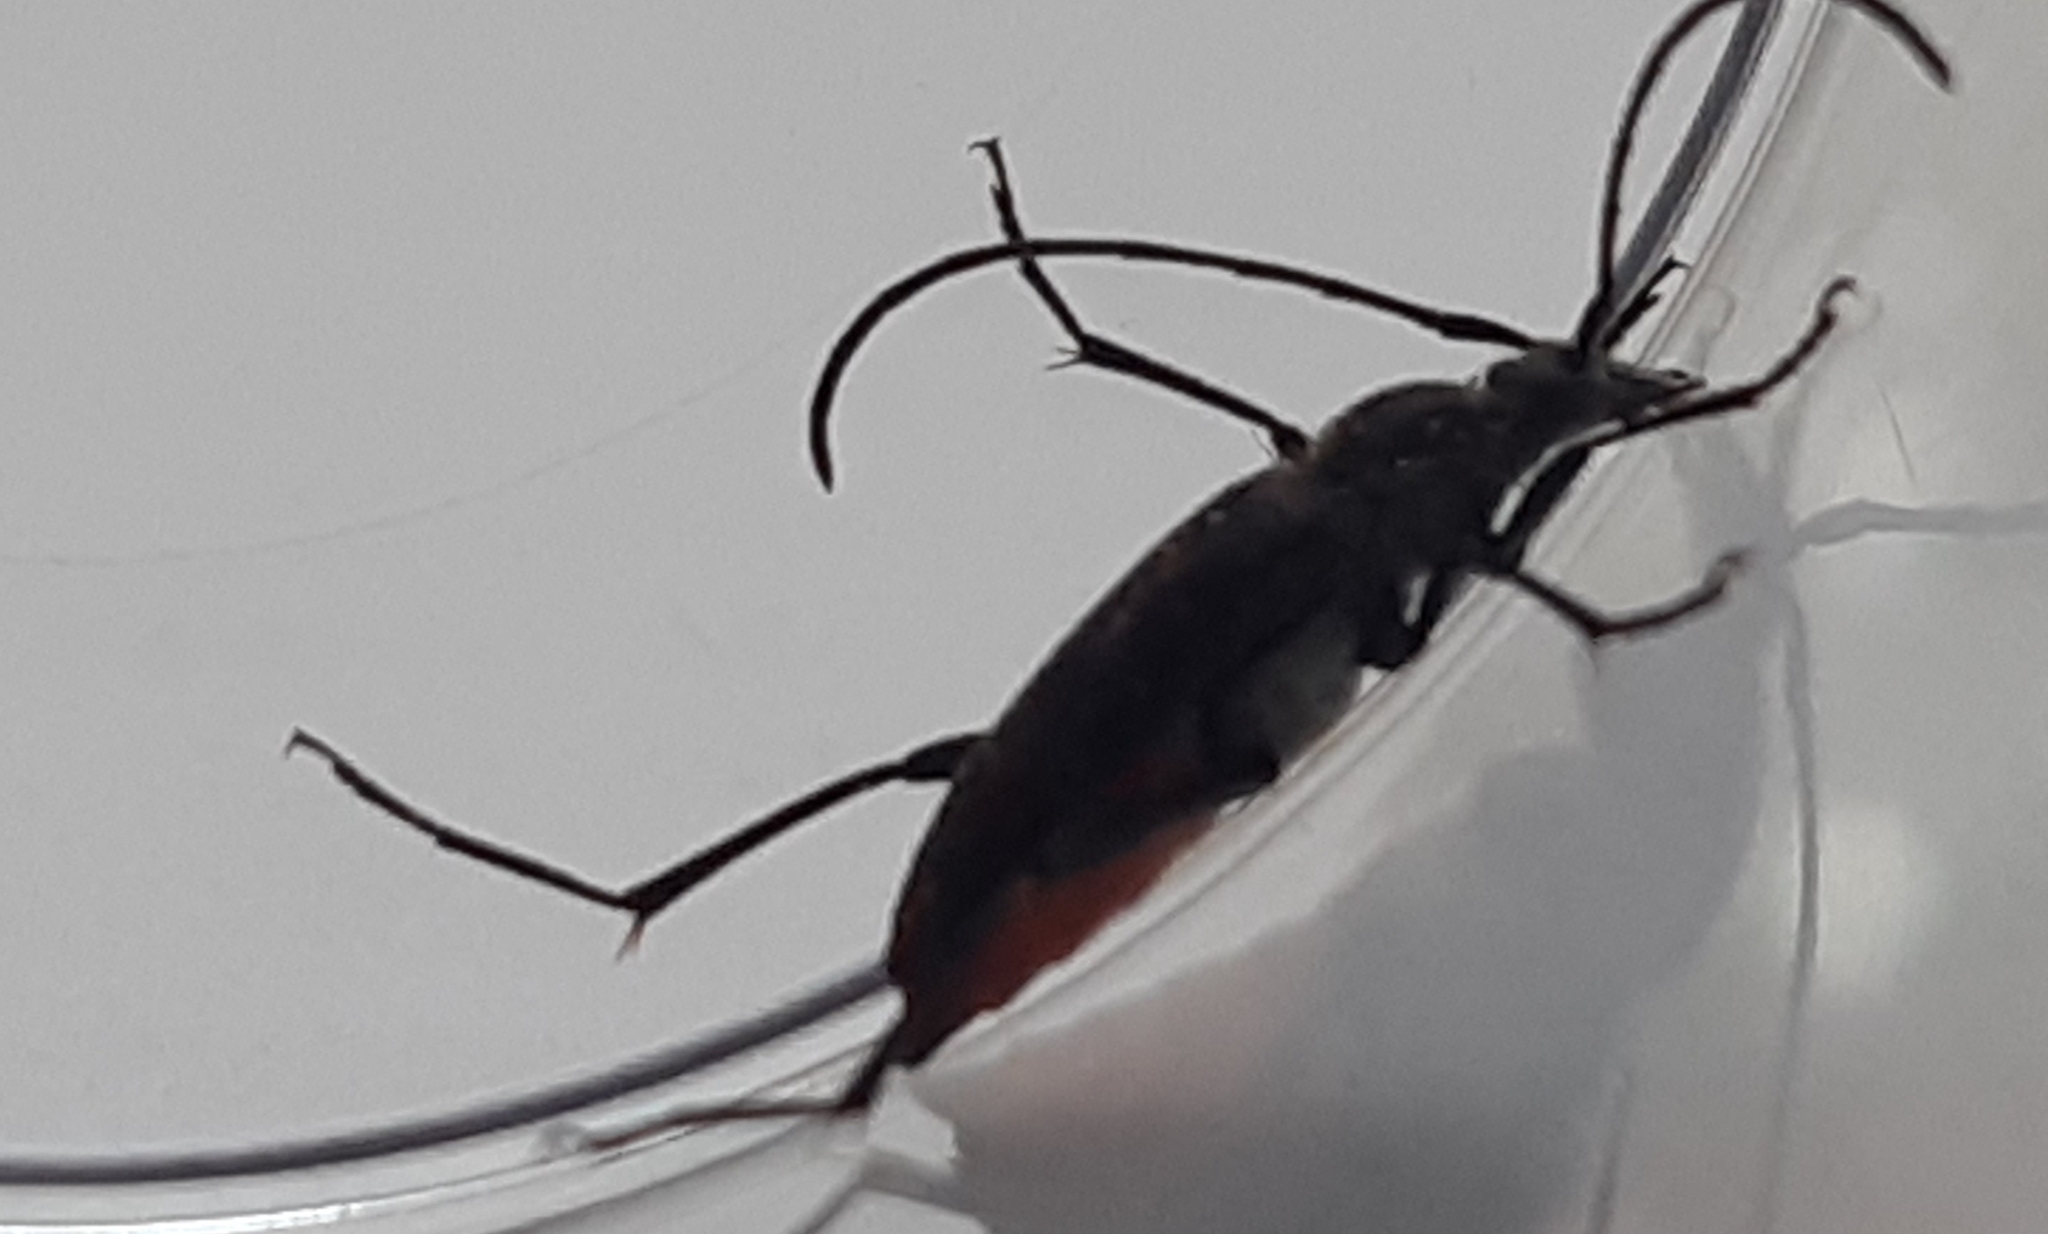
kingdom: Animalia
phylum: Arthropoda
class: Insecta
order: Coleoptera
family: Cerambycidae
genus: Stenurella
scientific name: Stenurella nigra
